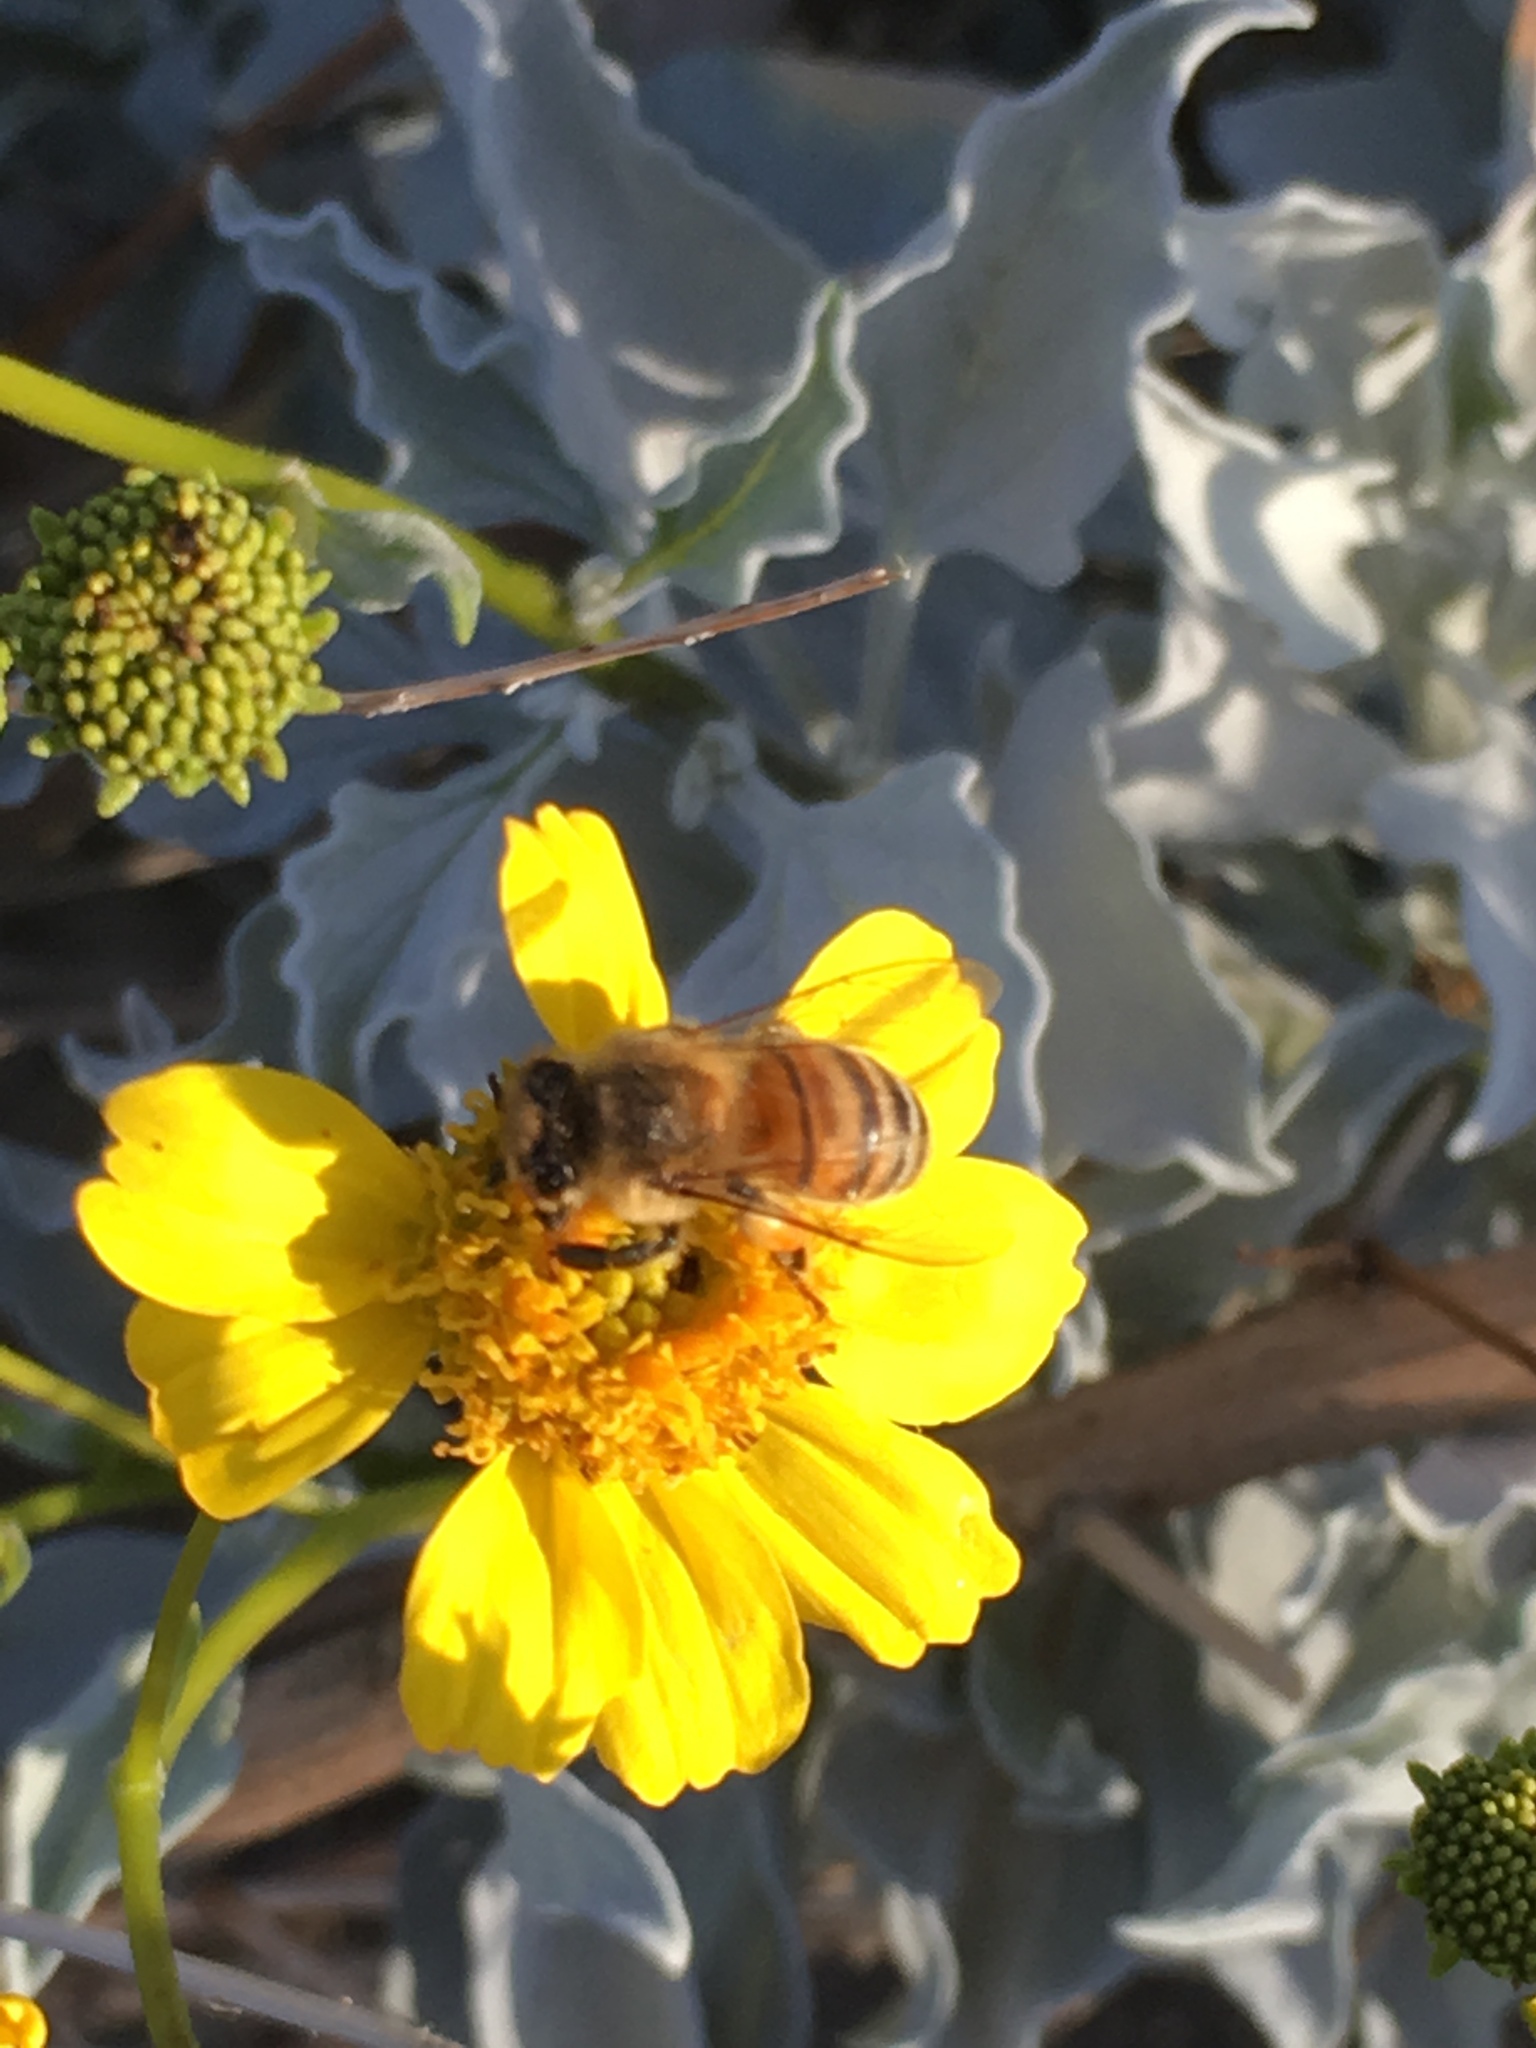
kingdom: Animalia
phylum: Arthropoda
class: Insecta
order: Hymenoptera
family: Apidae
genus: Apis
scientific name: Apis mellifera
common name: Honey bee
